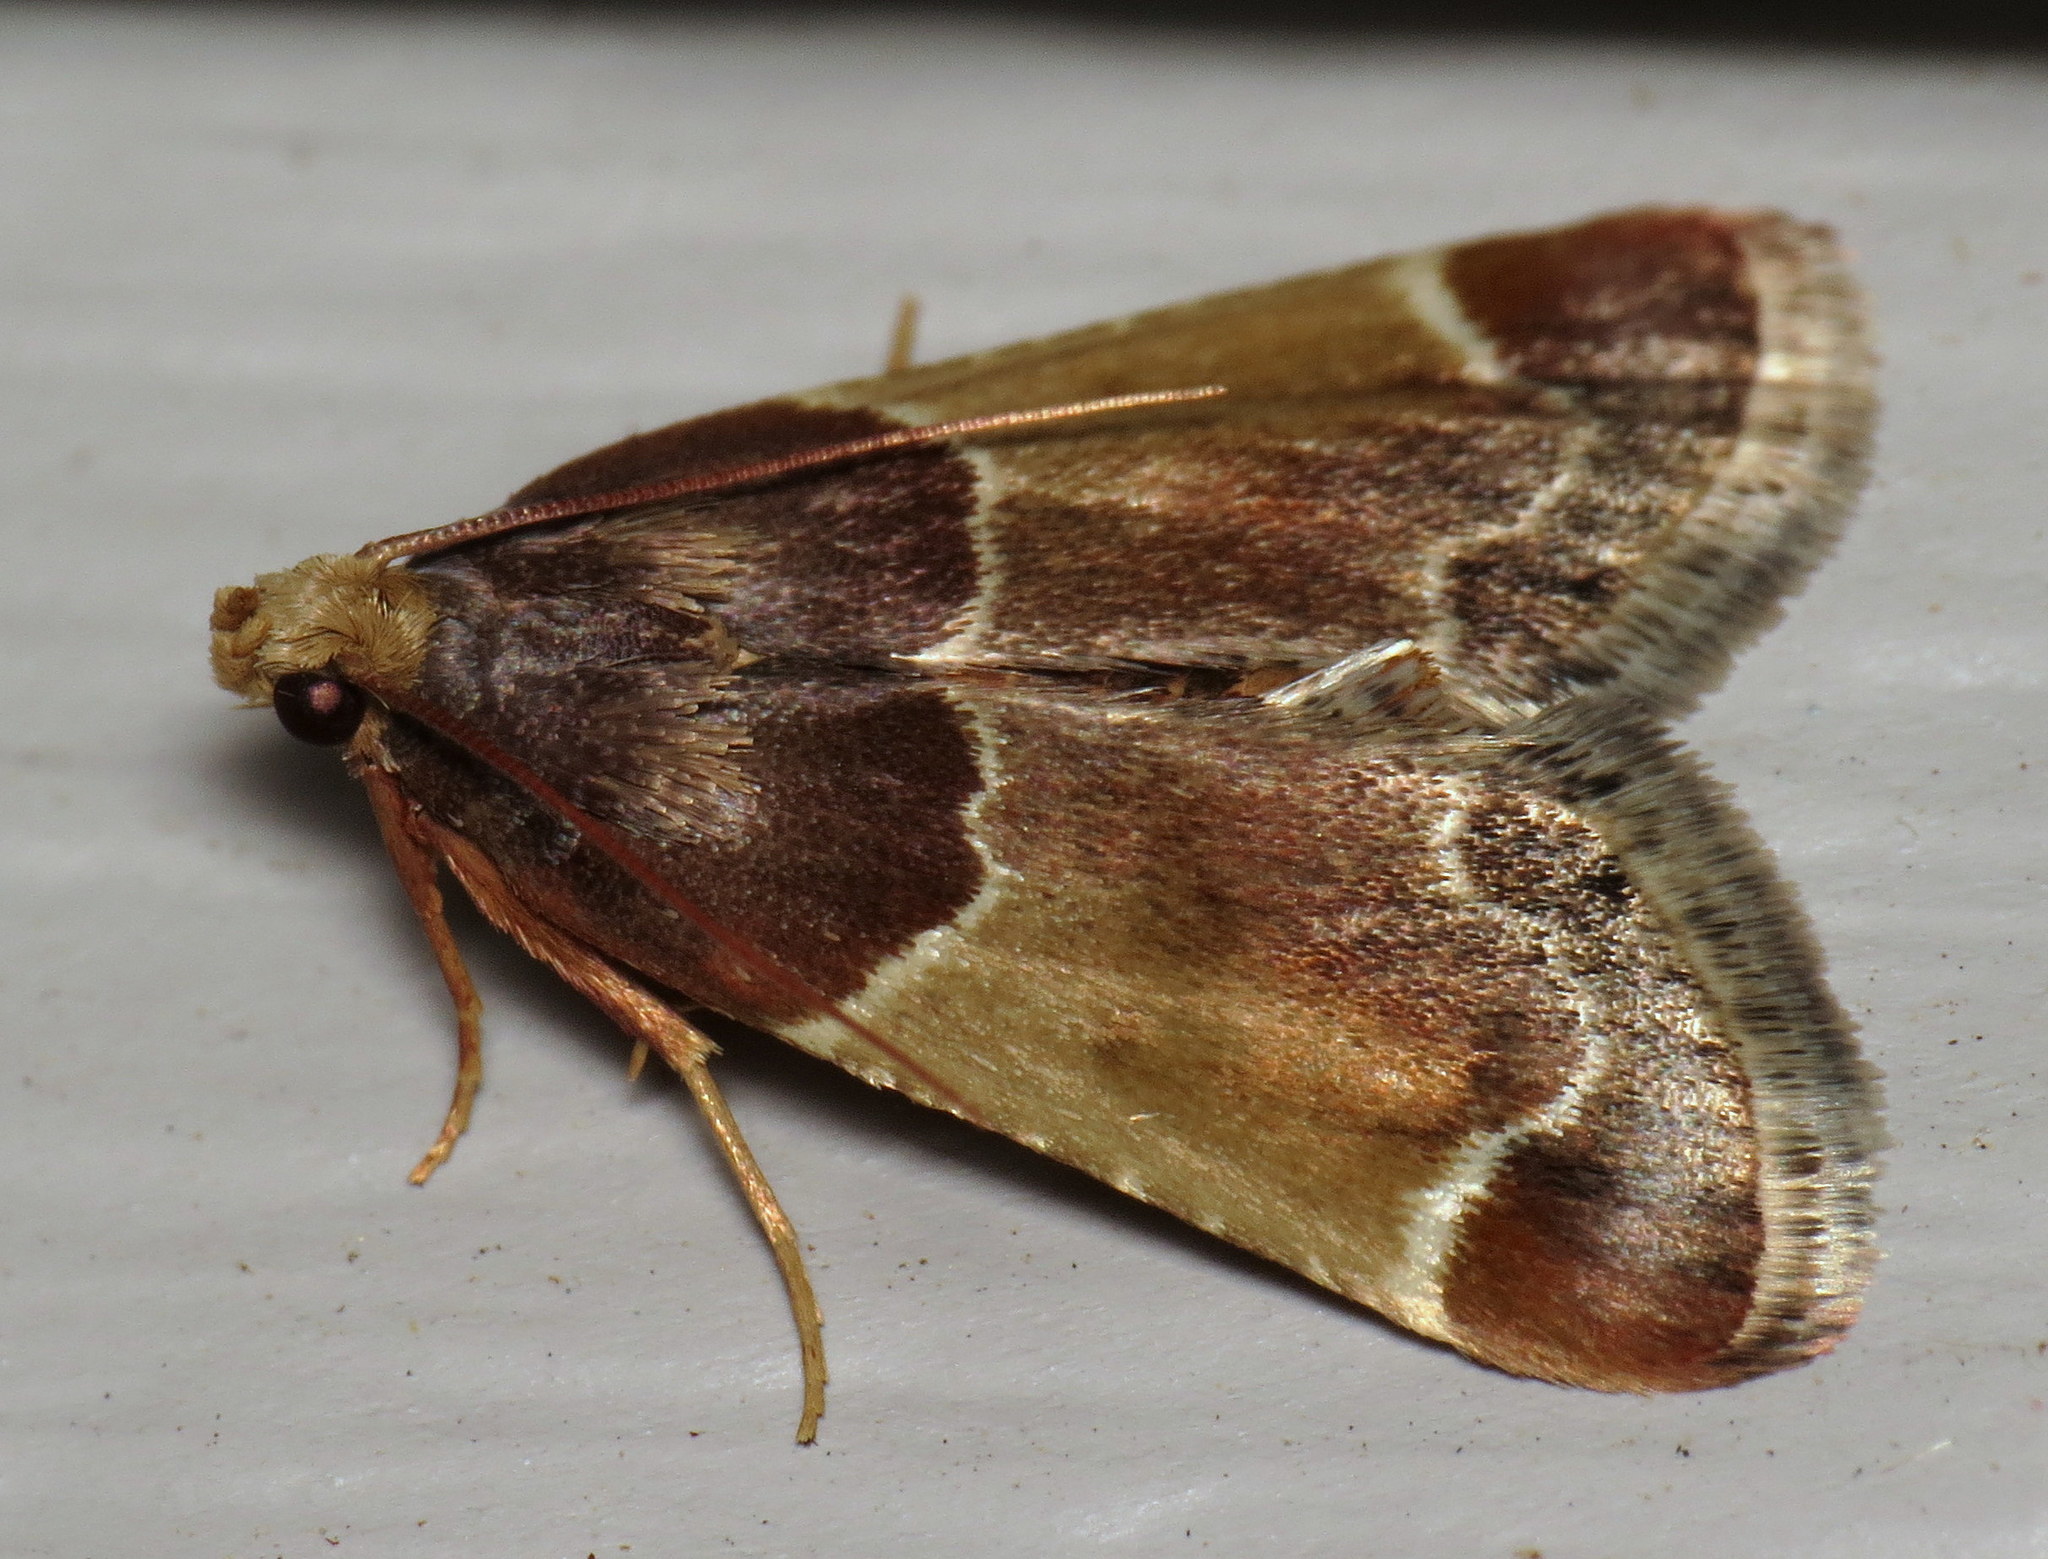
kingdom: Animalia
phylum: Arthropoda
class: Insecta
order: Lepidoptera
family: Pyralidae
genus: Pyralis
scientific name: Pyralis farinalis
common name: Meal moth
